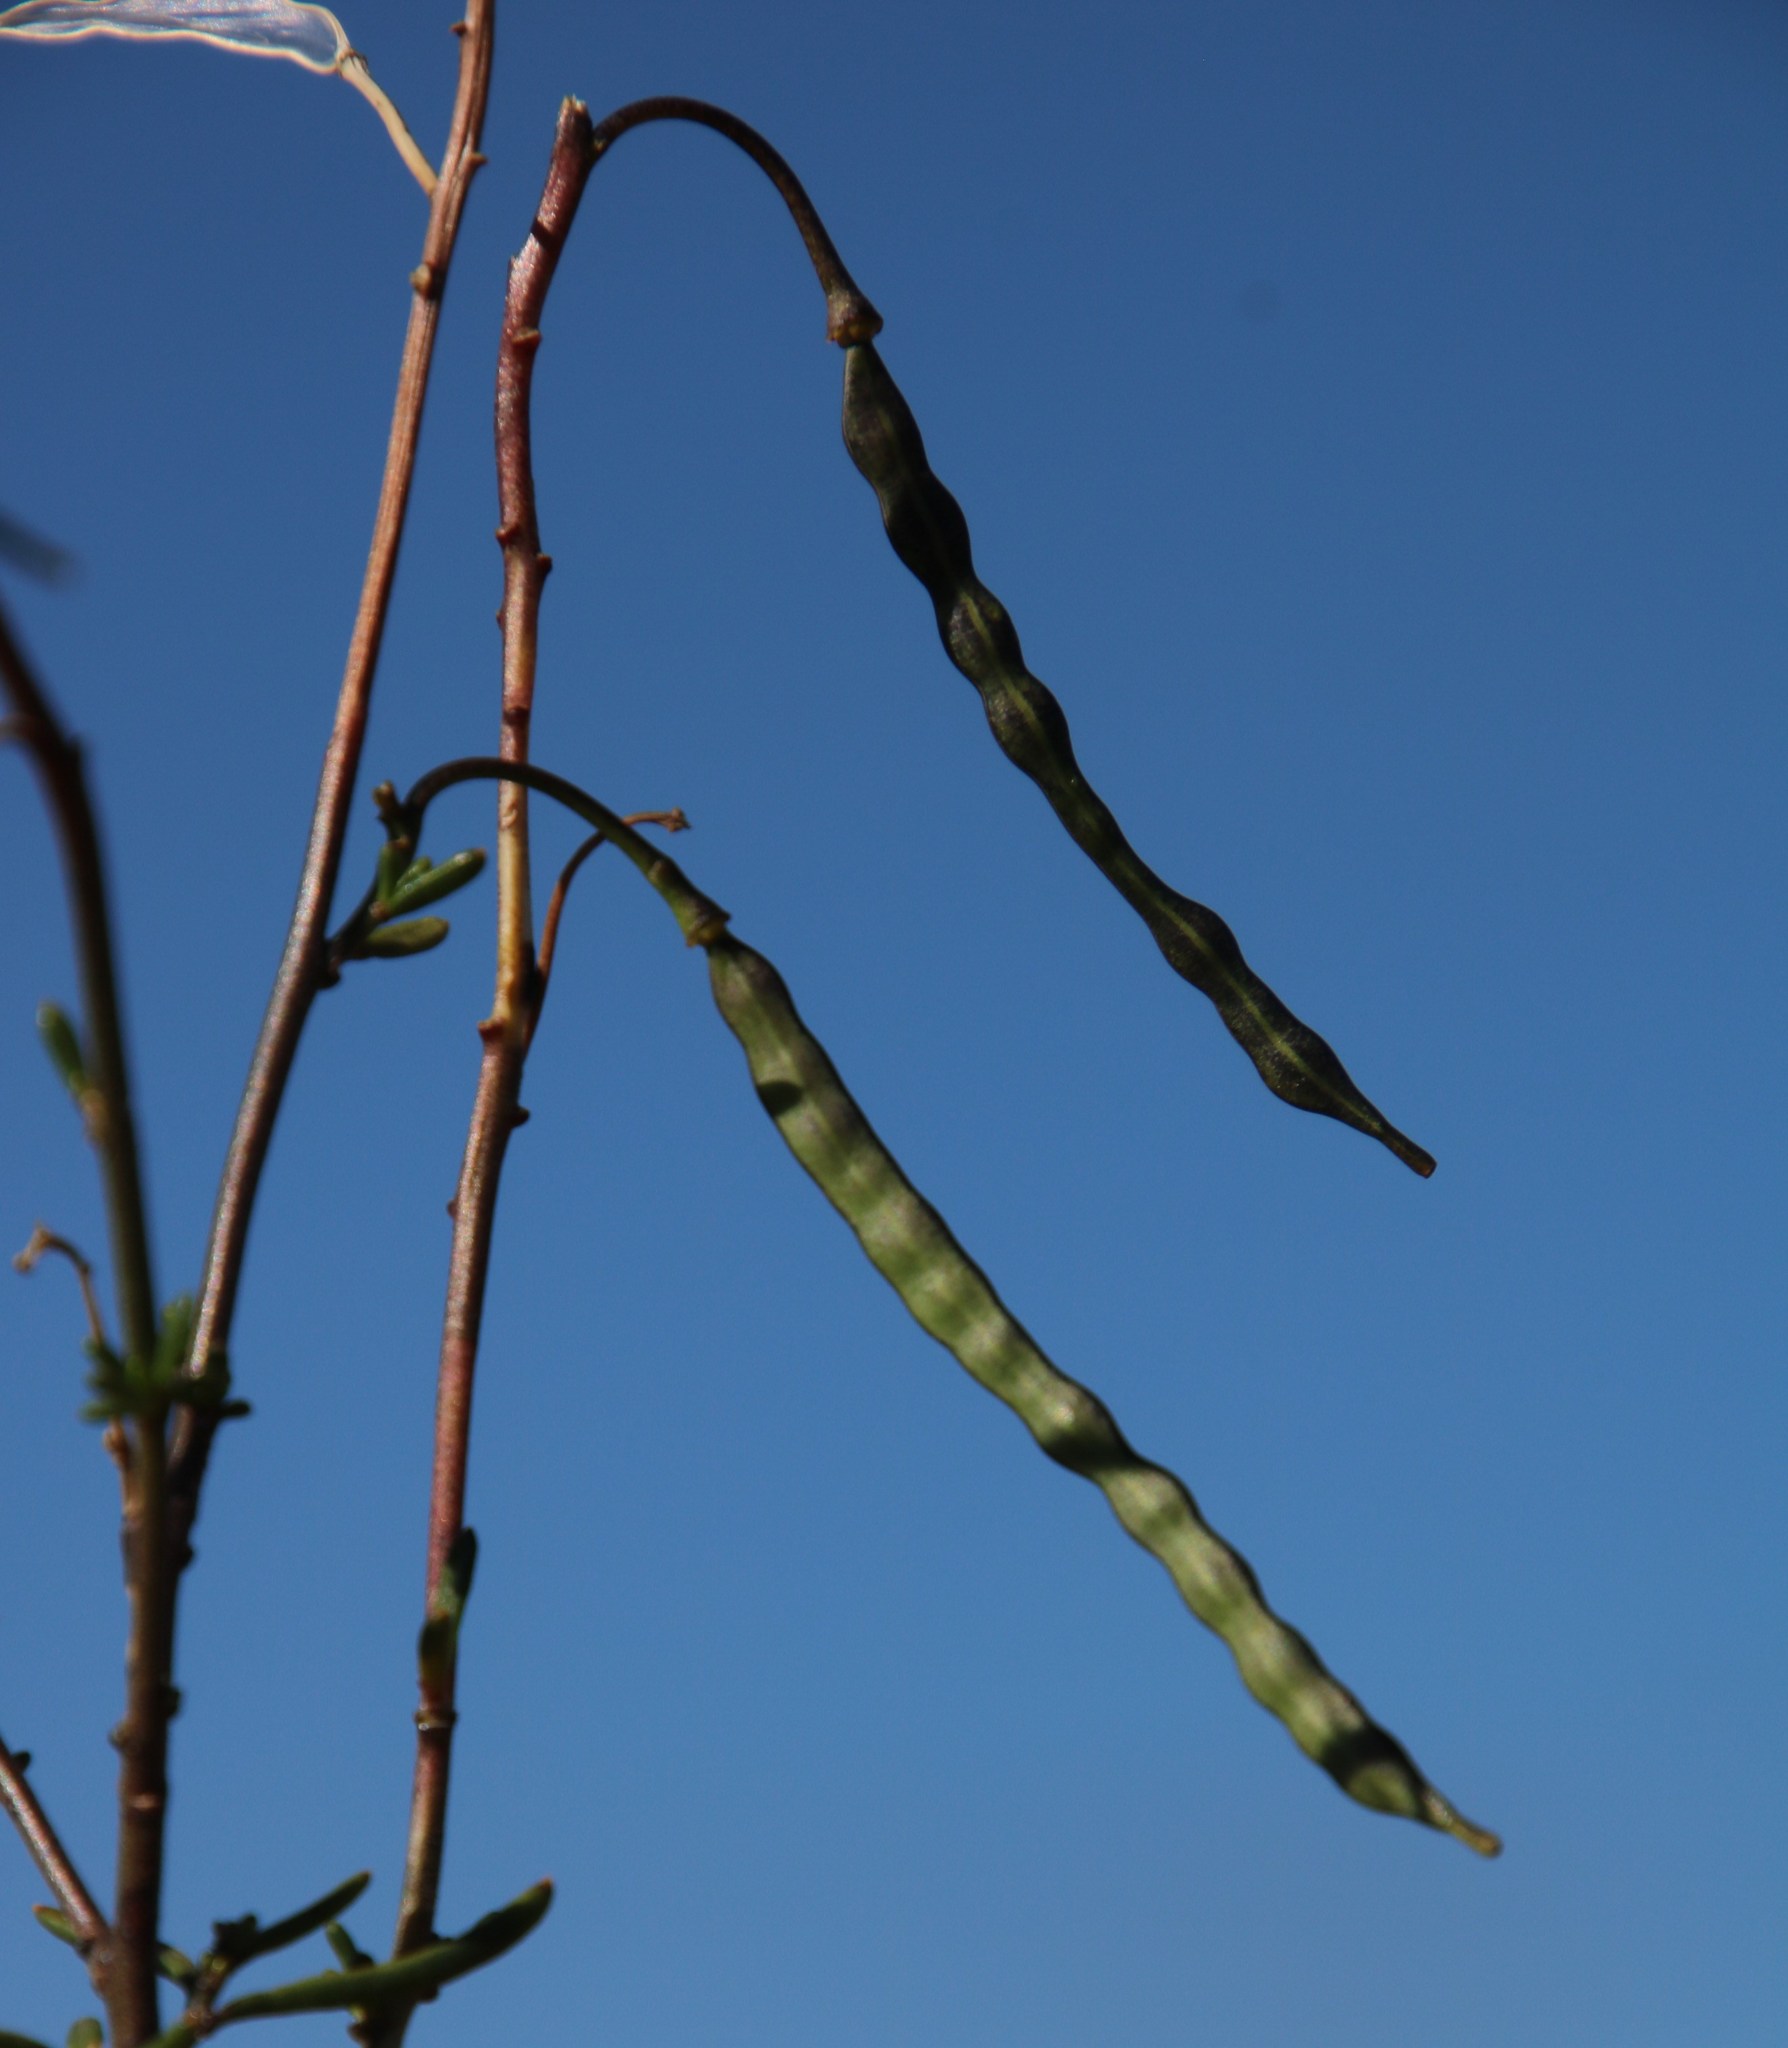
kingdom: Plantae
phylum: Tracheophyta
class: Magnoliopsida
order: Brassicales
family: Brassicaceae
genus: Heliophila
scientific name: Heliophila suavissima
